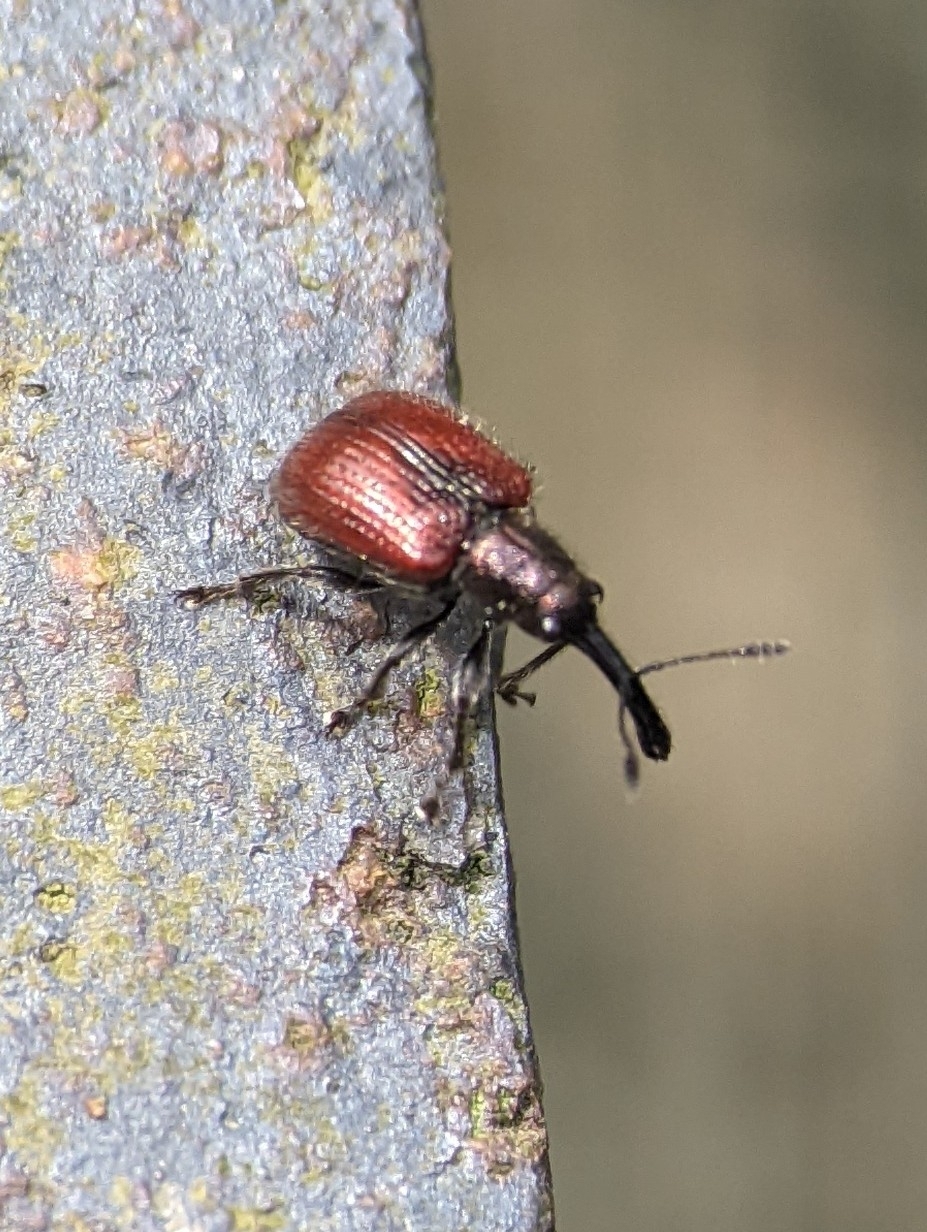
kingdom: Animalia
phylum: Arthropoda
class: Insecta
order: Coleoptera
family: Rhynchitidae
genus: Tatianaerhynchites
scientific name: Tatianaerhynchites aequatus
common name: Apple fruit rhynchites
